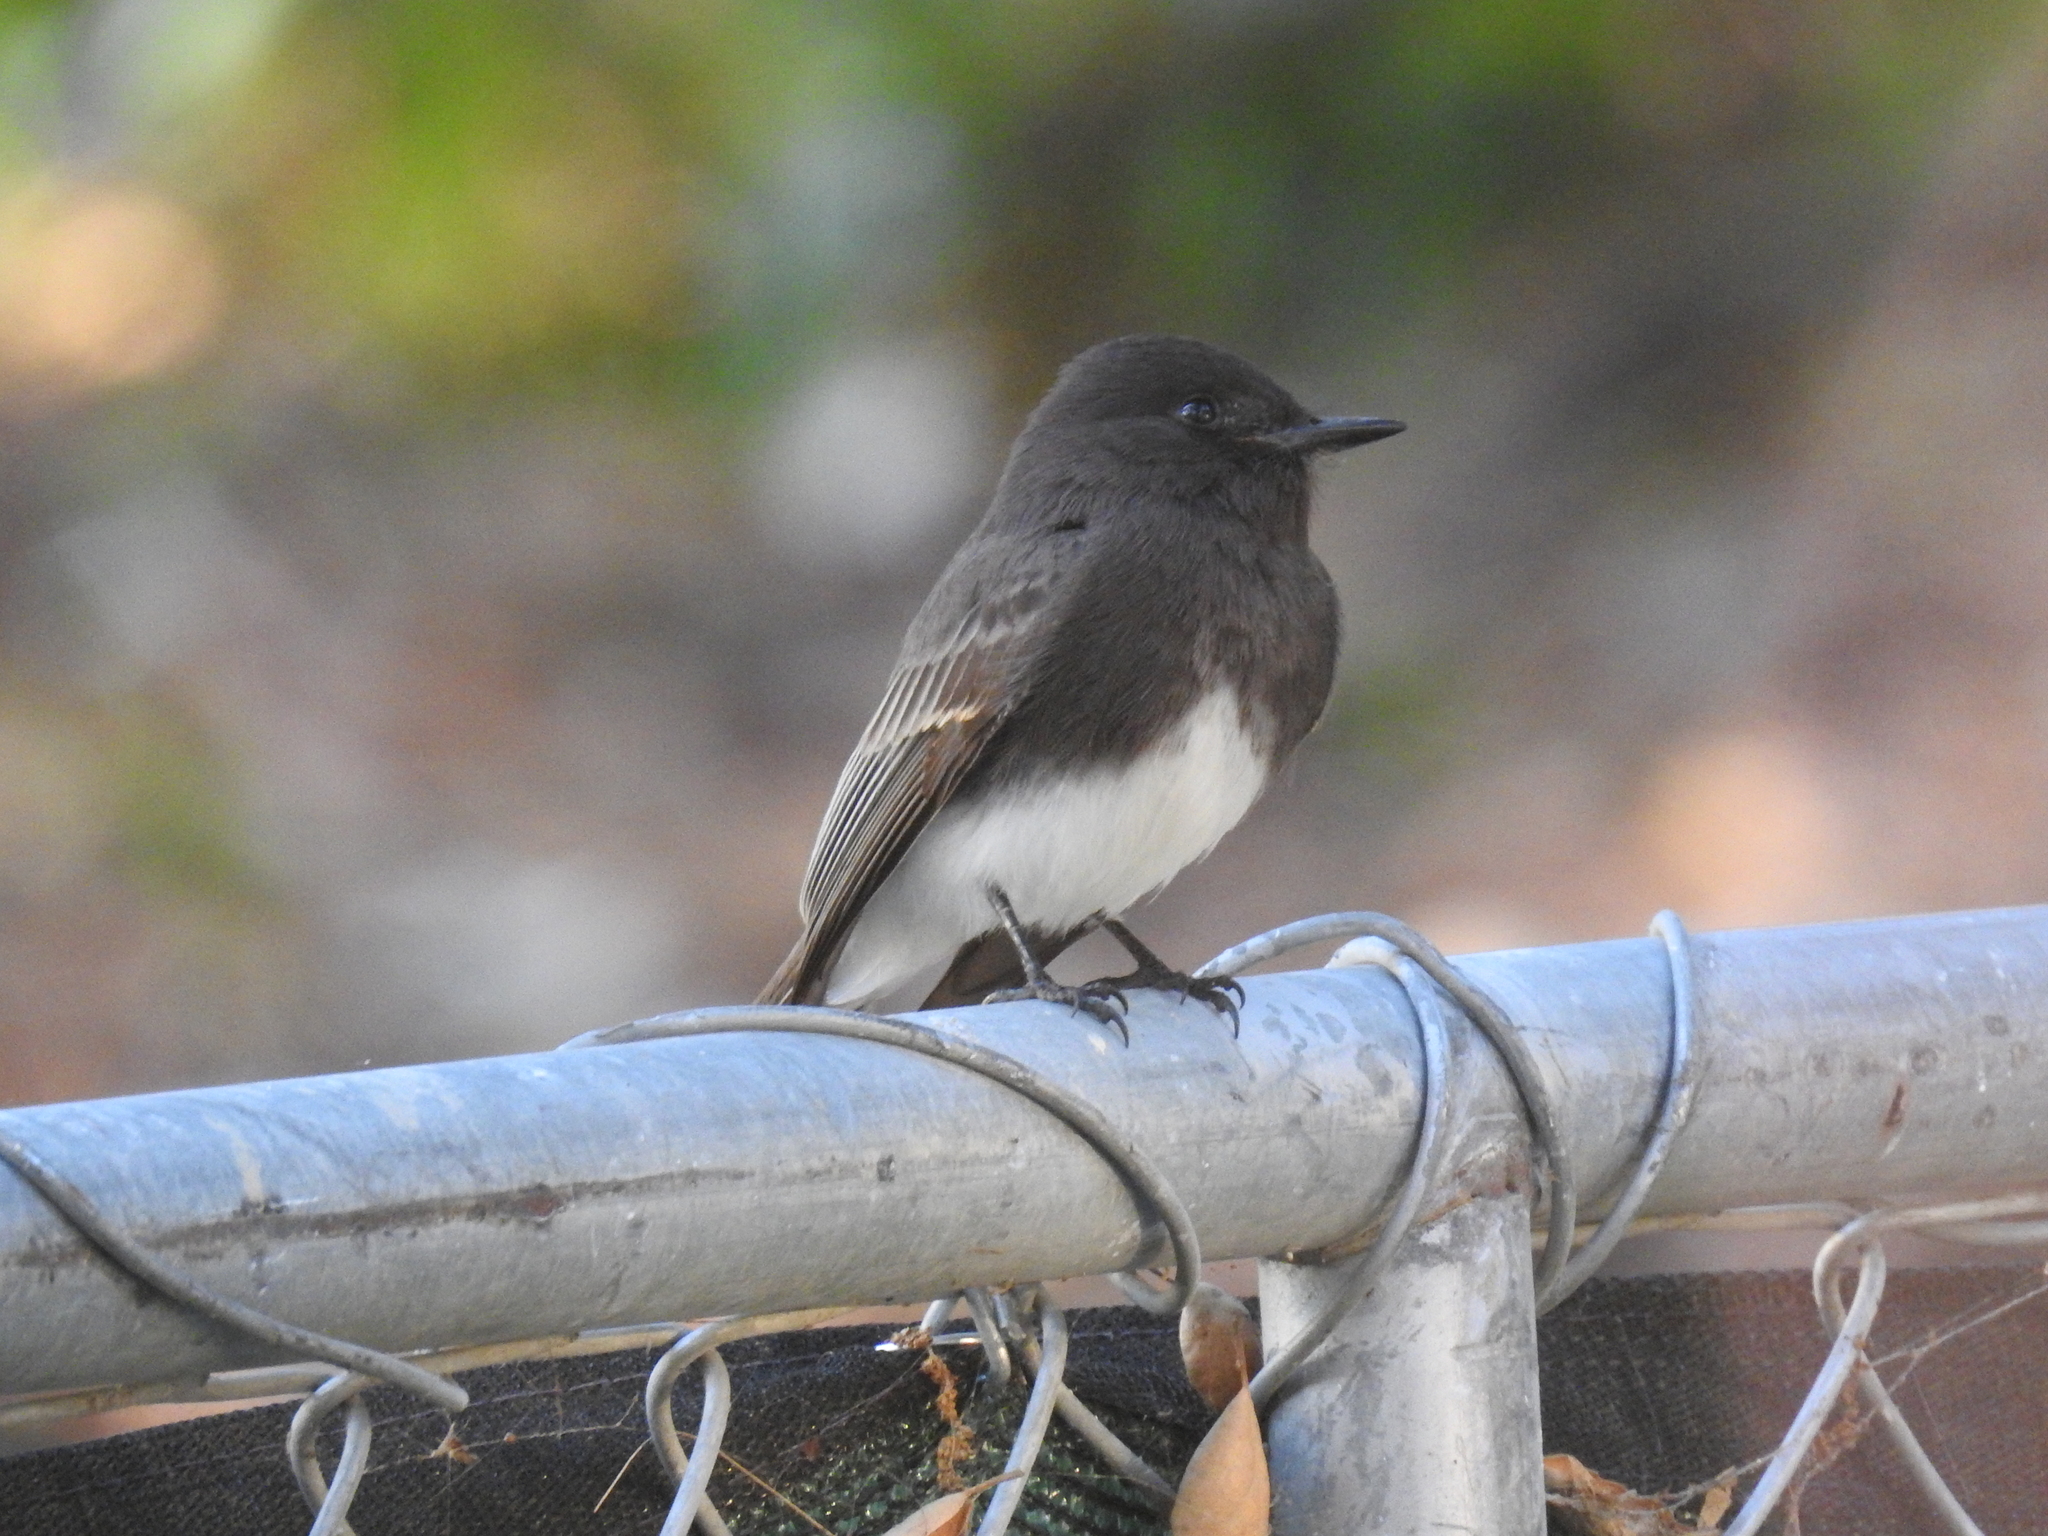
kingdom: Animalia
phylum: Chordata
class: Aves
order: Passeriformes
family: Tyrannidae
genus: Sayornis
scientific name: Sayornis nigricans
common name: Black phoebe
